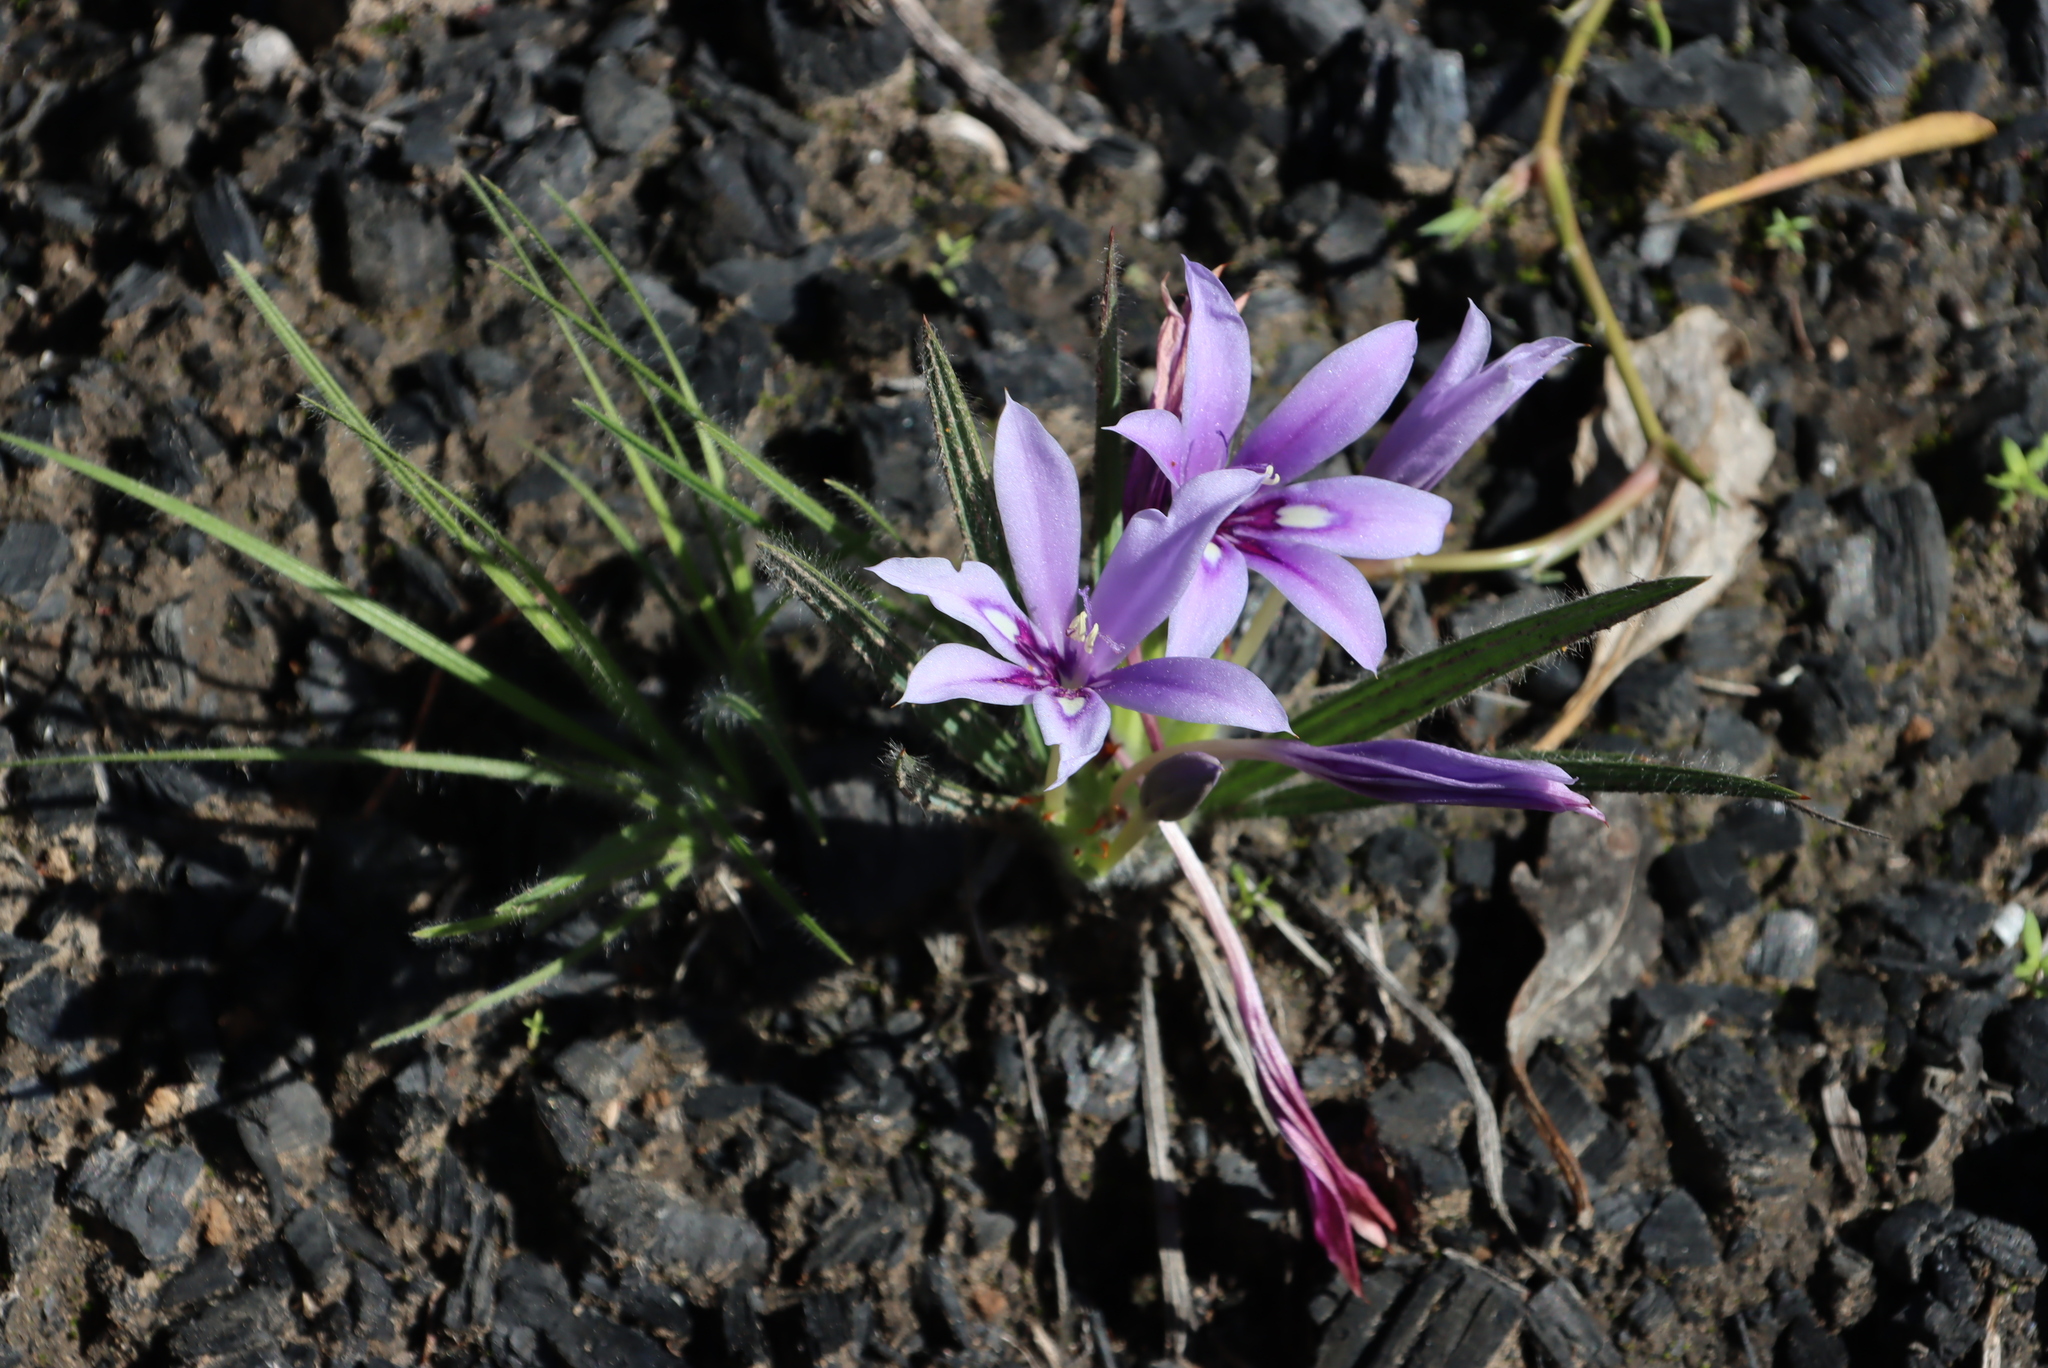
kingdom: Plantae
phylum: Tracheophyta
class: Liliopsida
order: Asparagales
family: Iridaceae
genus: Babiana
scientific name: Babiana sambucina
